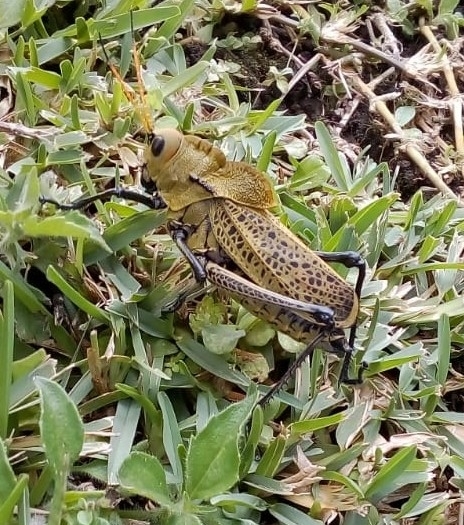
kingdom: Animalia
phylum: Arthropoda
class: Insecta
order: Orthoptera
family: Romaleidae
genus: Romalea
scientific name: Romalea
